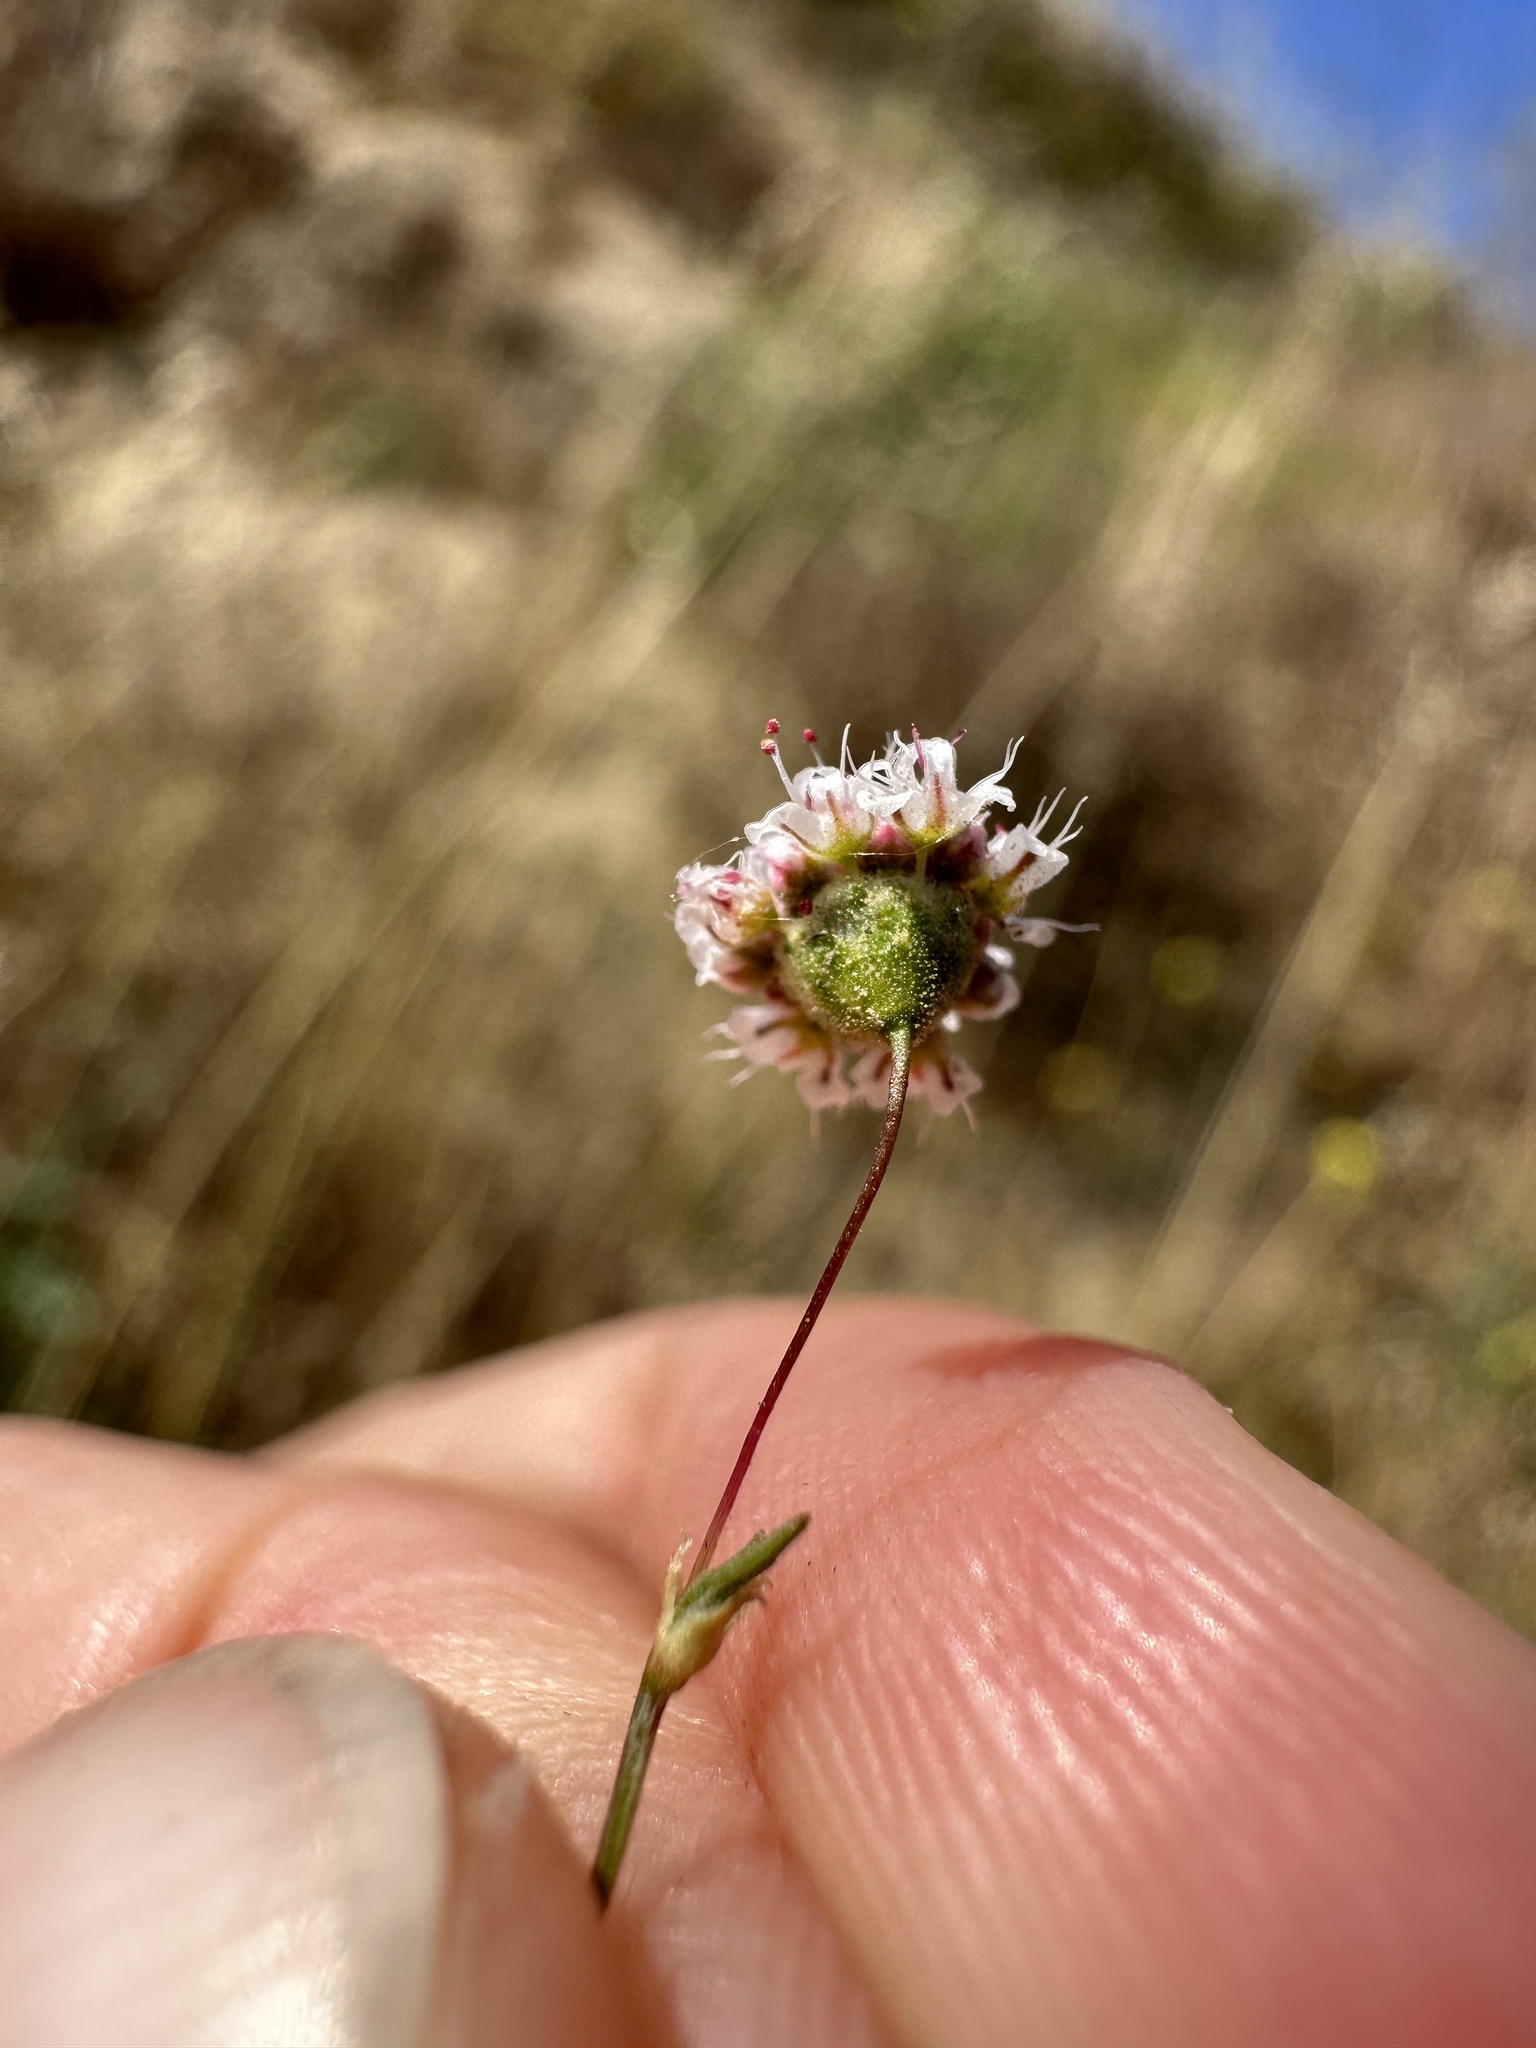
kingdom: Plantae
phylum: Tracheophyta
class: Magnoliopsida
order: Caryophyllales
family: Polygonaceae
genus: Eriogonum
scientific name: Eriogonum angulosum
